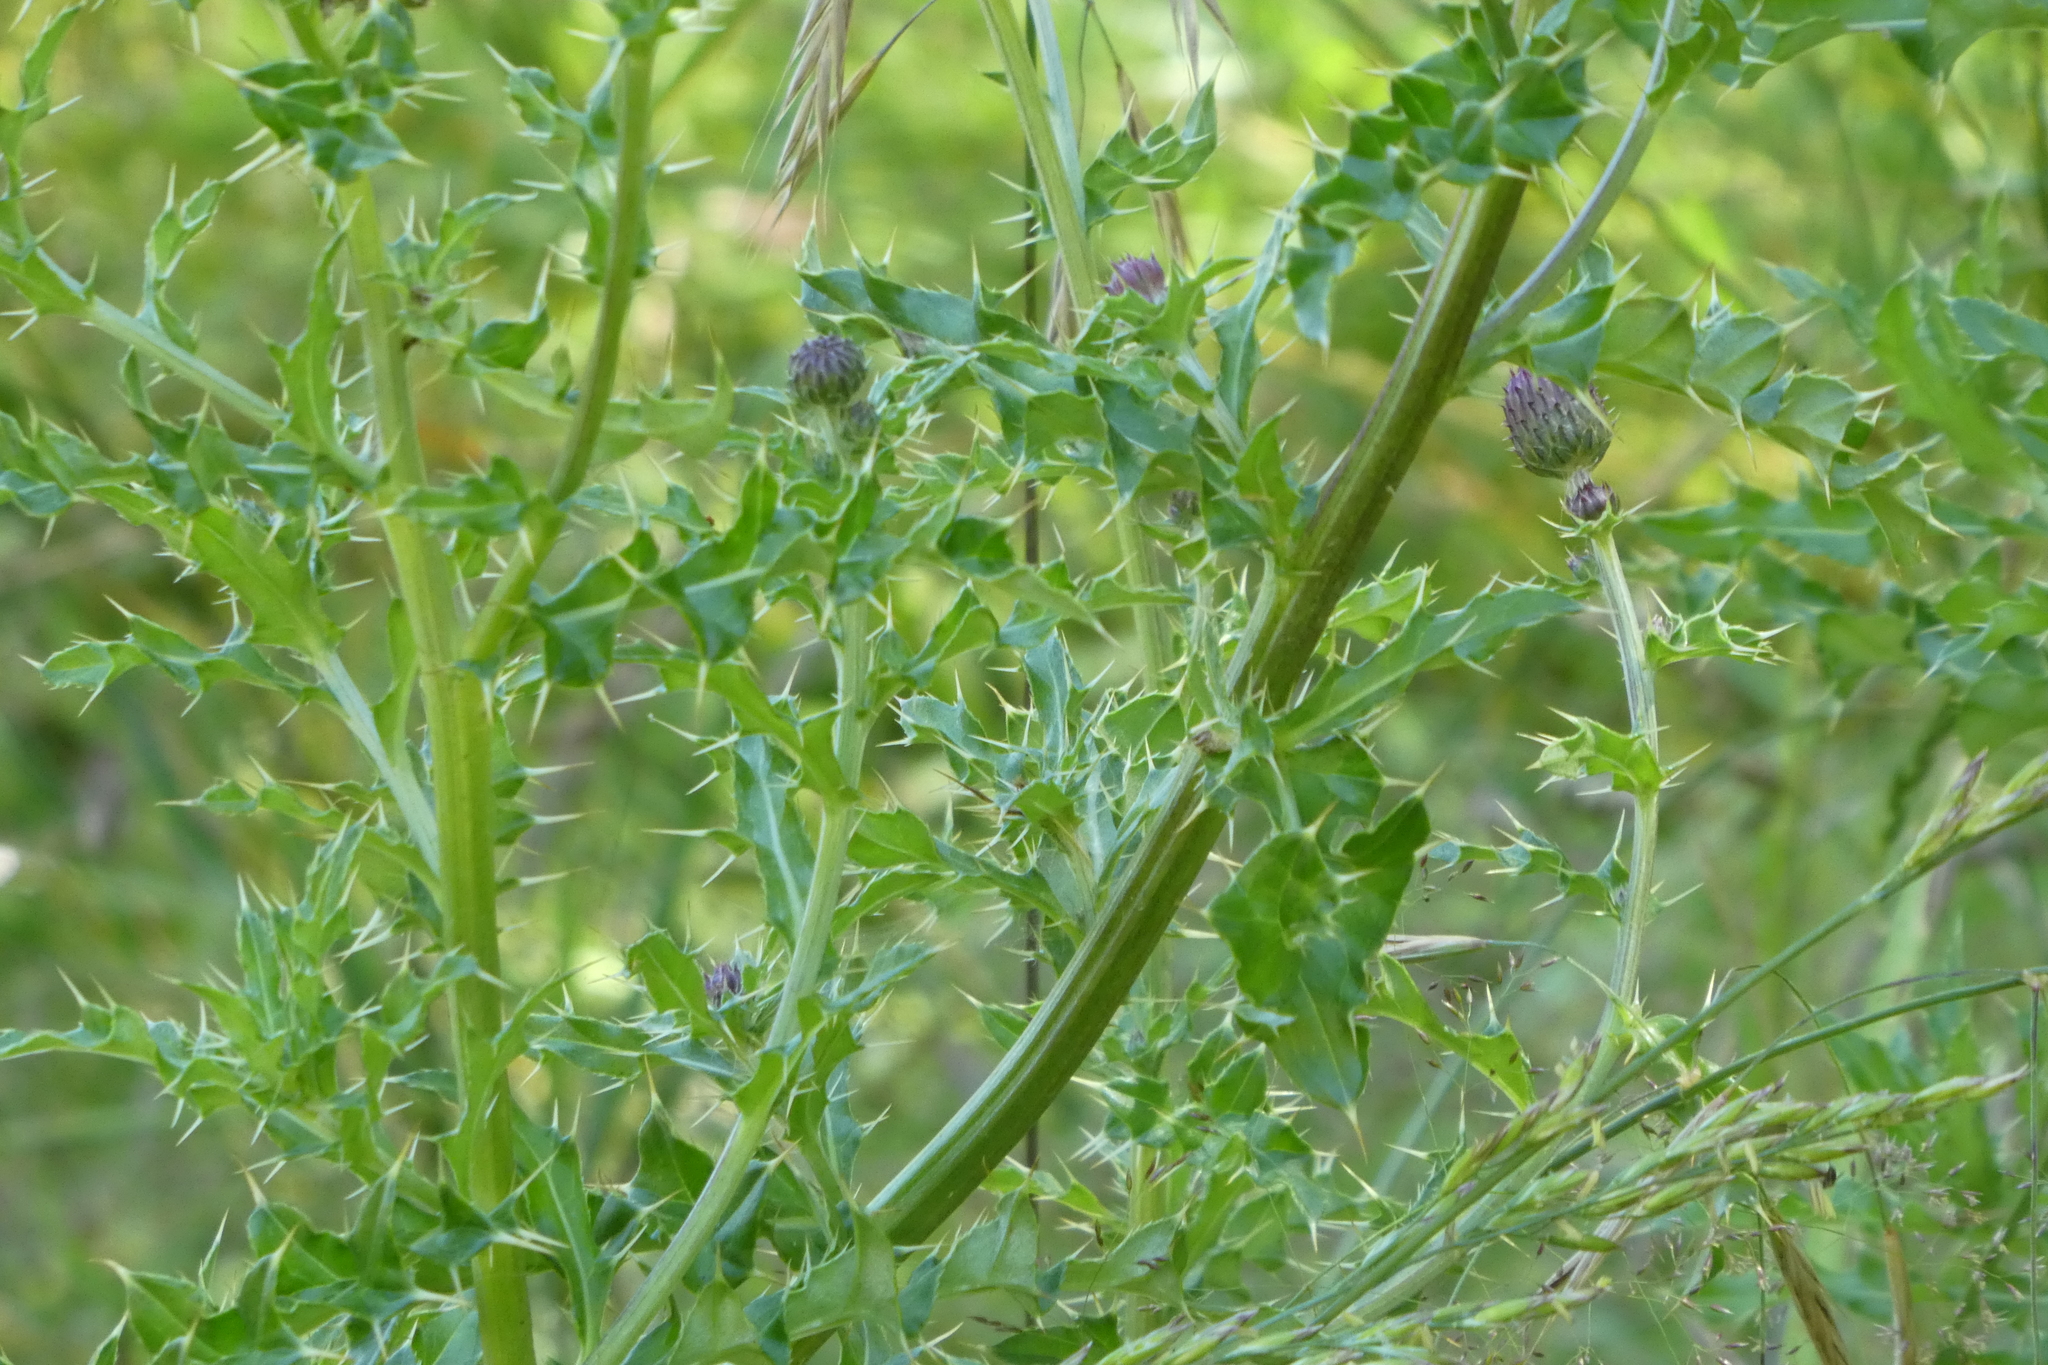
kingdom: Plantae
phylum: Tracheophyta
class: Magnoliopsida
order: Asterales
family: Asteraceae
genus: Cirsium
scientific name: Cirsium arvense
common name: Creeping thistle
